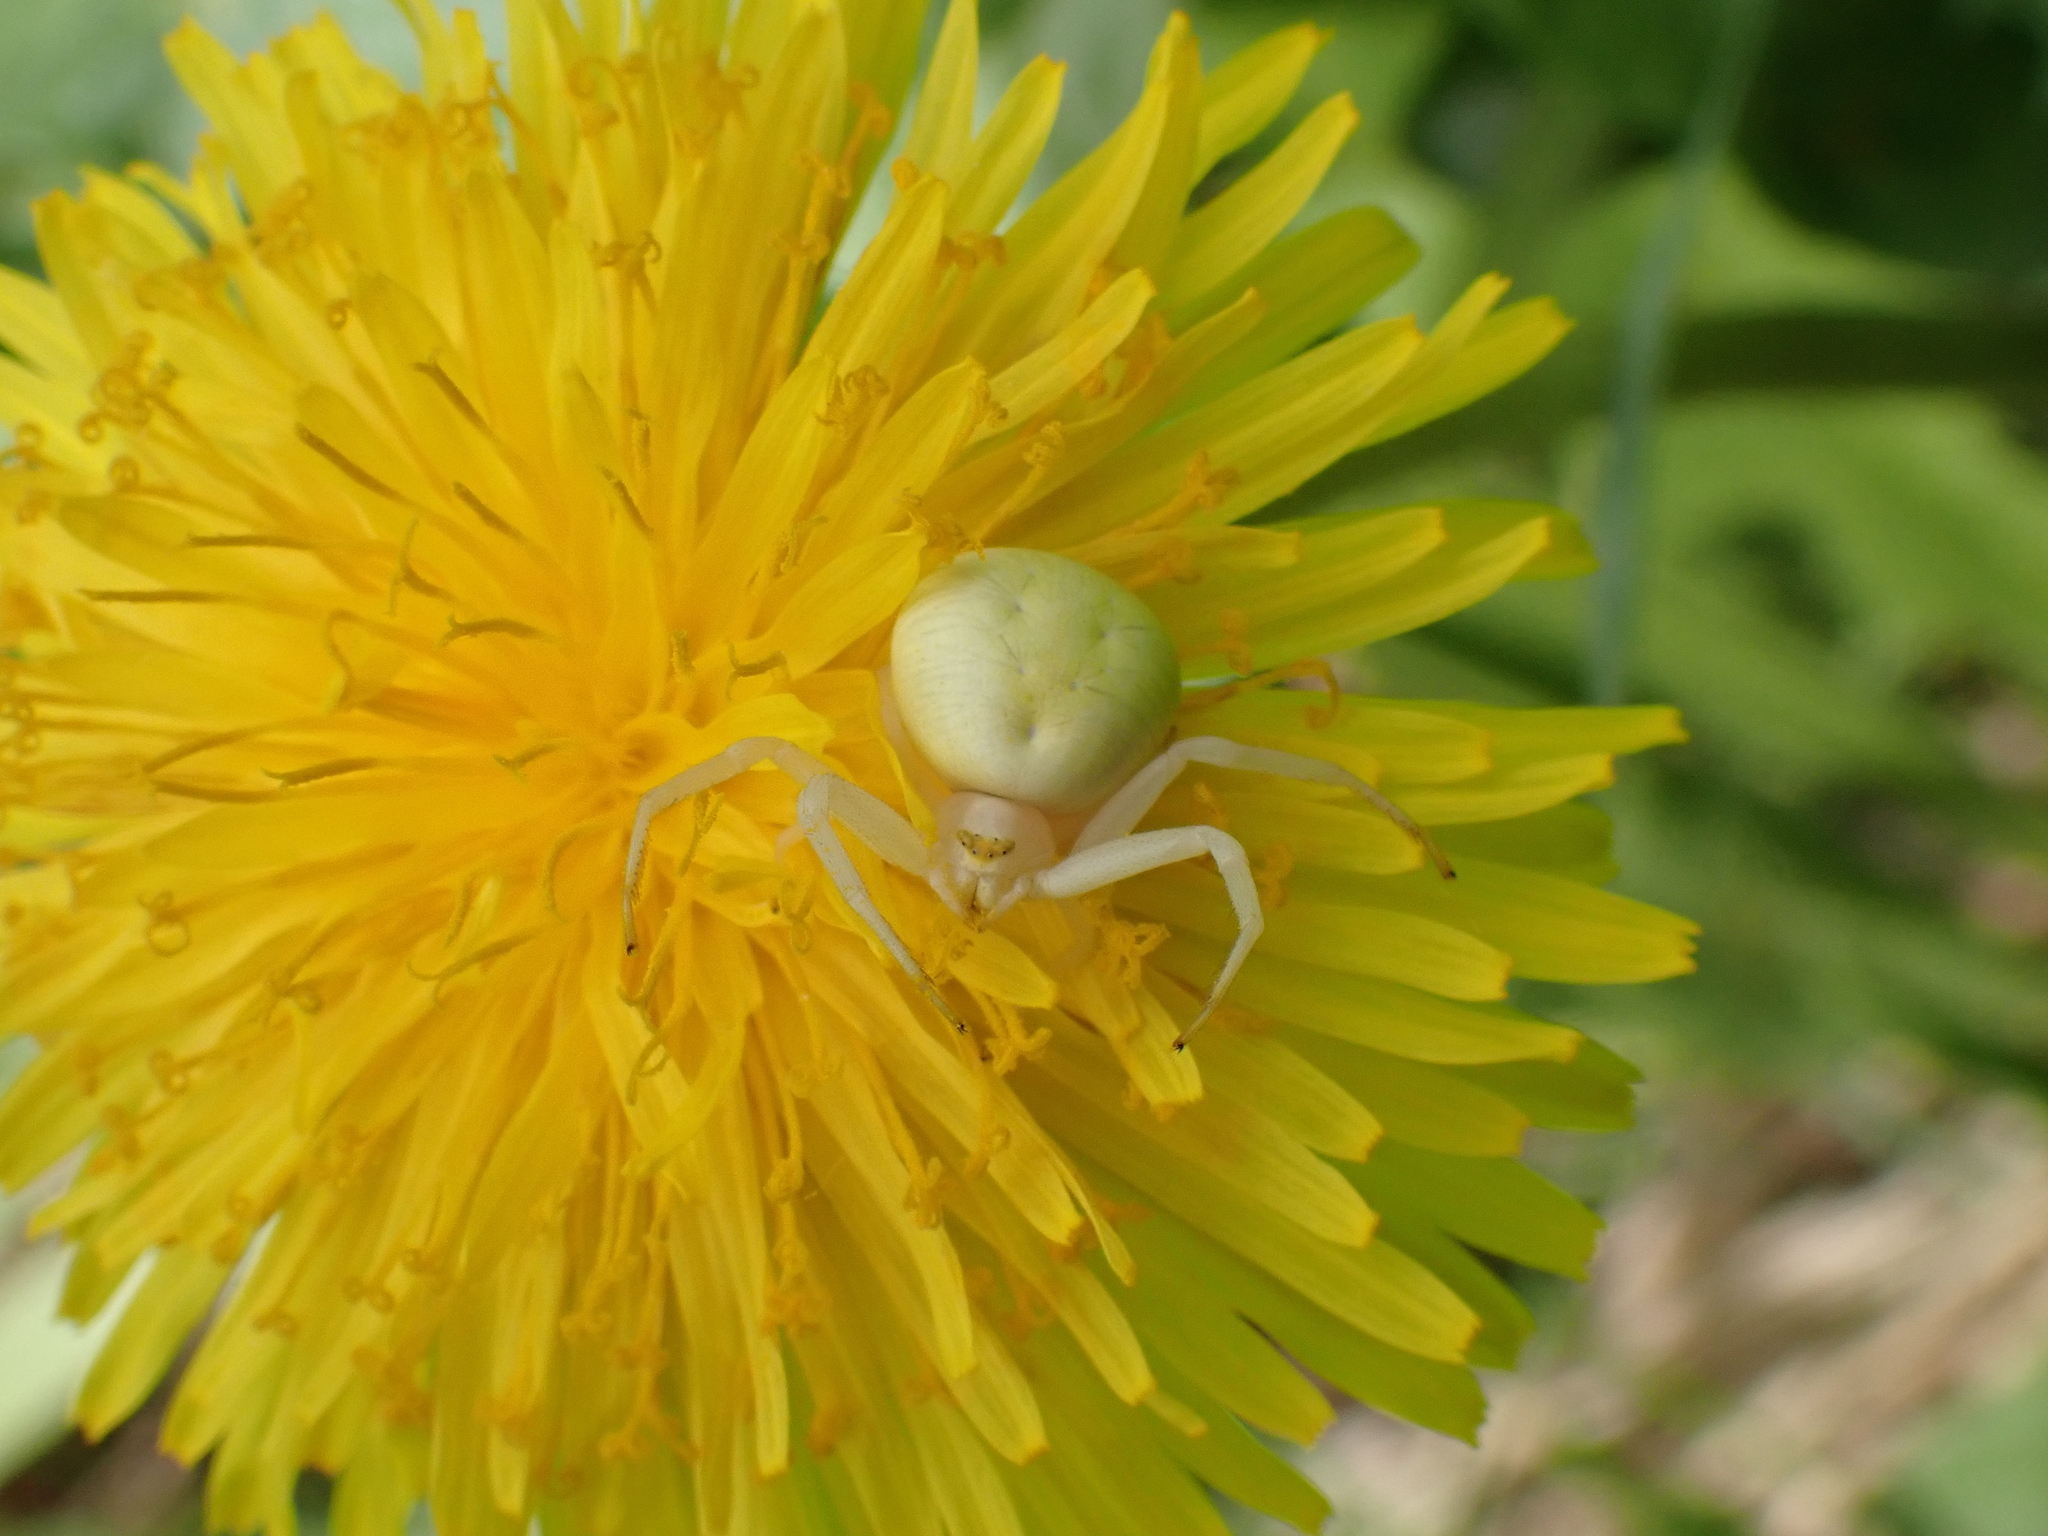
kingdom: Animalia
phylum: Arthropoda
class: Arachnida
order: Araneae
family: Thomisidae
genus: Misumena
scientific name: Misumena vatia
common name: Goldenrod crab spider
